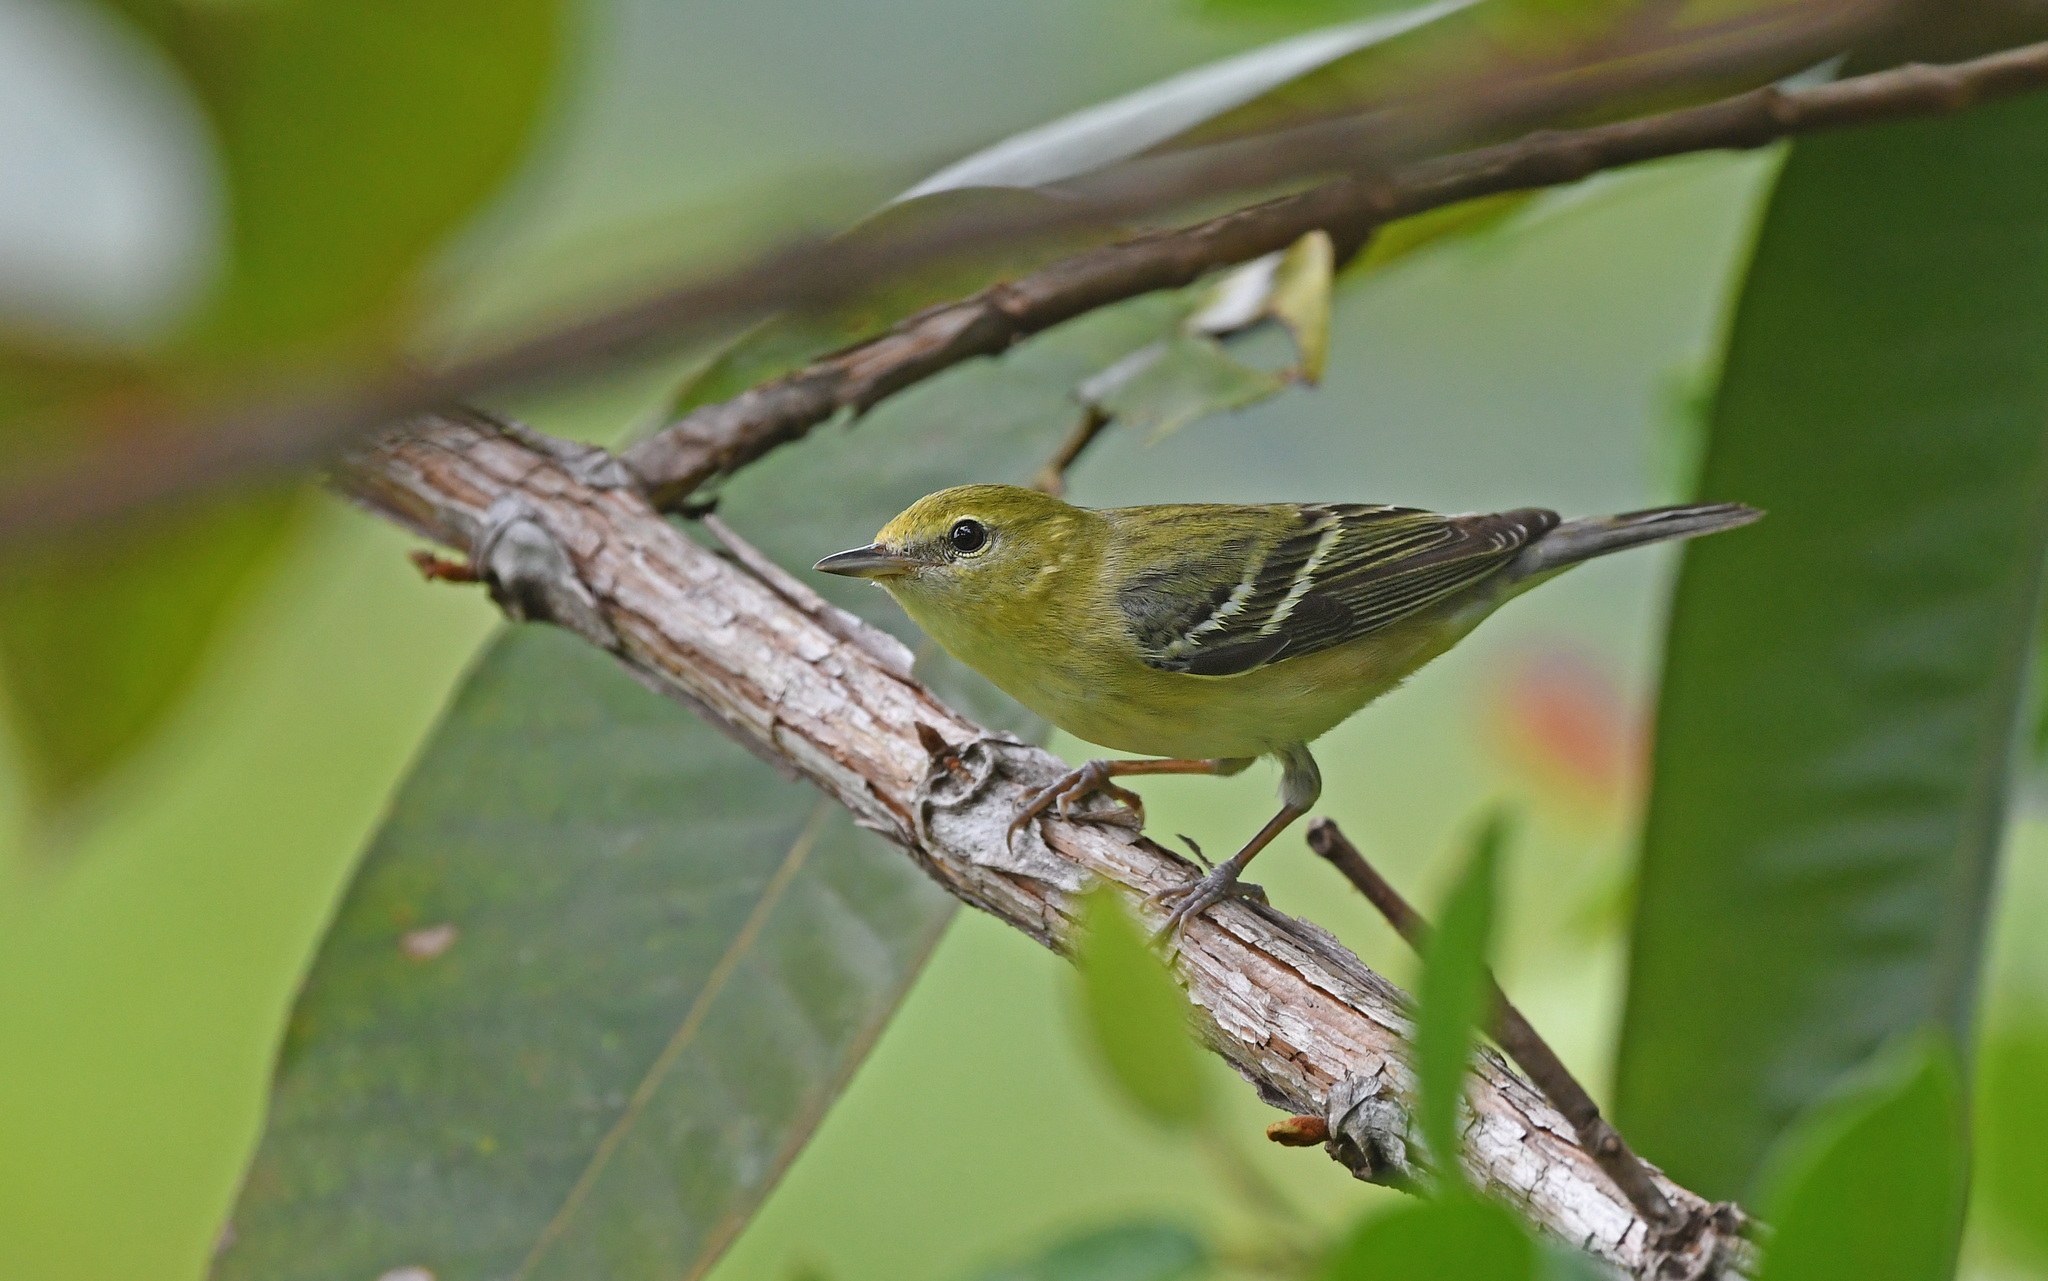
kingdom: Animalia
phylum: Chordata
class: Aves
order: Passeriformes
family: Parulidae
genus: Setophaga
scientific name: Setophaga castanea
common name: Bay-breasted warbler
